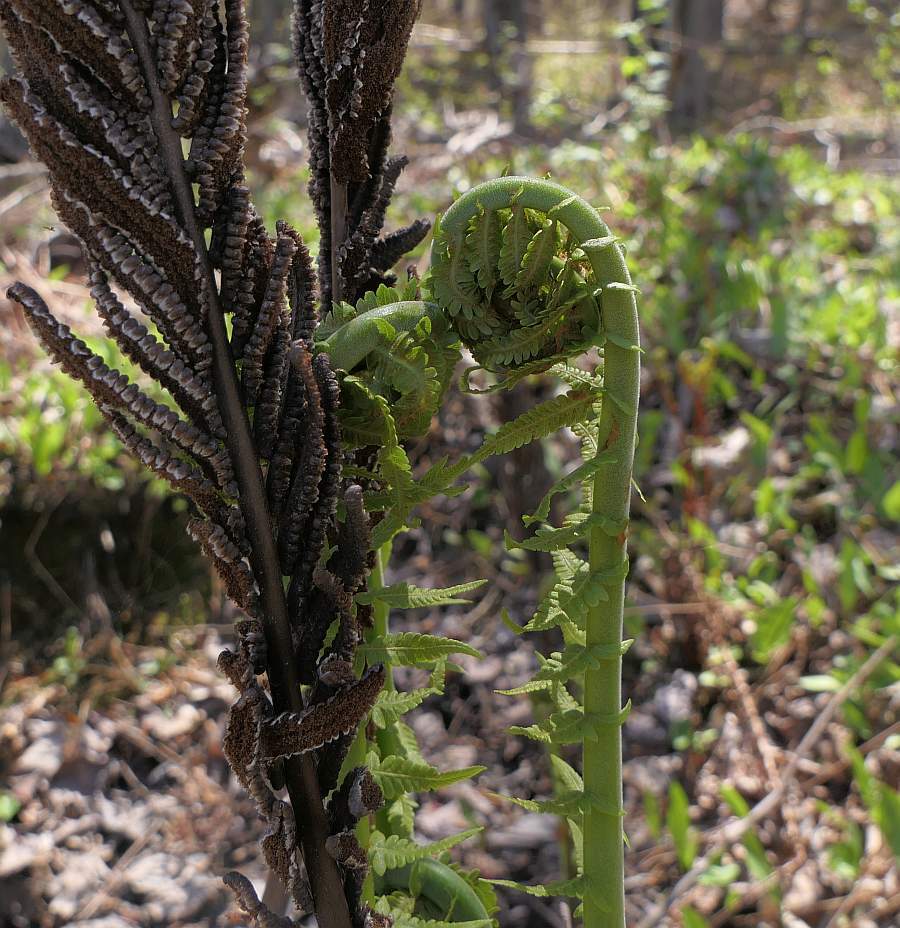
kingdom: Plantae
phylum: Tracheophyta
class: Polypodiopsida
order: Polypodiales
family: Onocleaceae
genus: Matteuccia
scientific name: Matteuccia struthiopteris
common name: Ostrich fern
